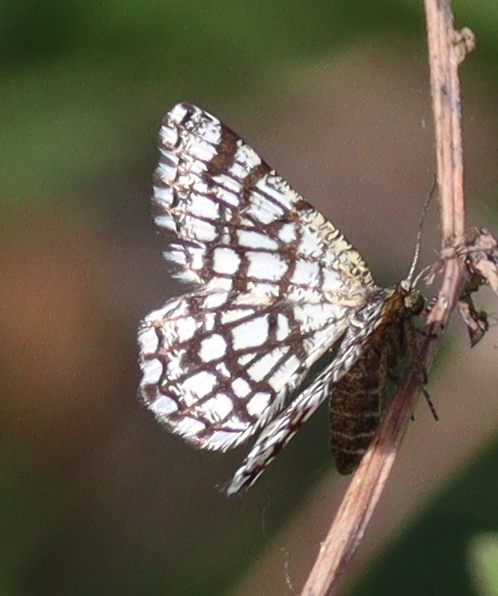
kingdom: Animalia
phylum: Arthropoda
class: Insecta
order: Lepidoptera
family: Geometridae
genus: Chiasmia
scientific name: Chiasmia clathrata
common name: Latticed heath
